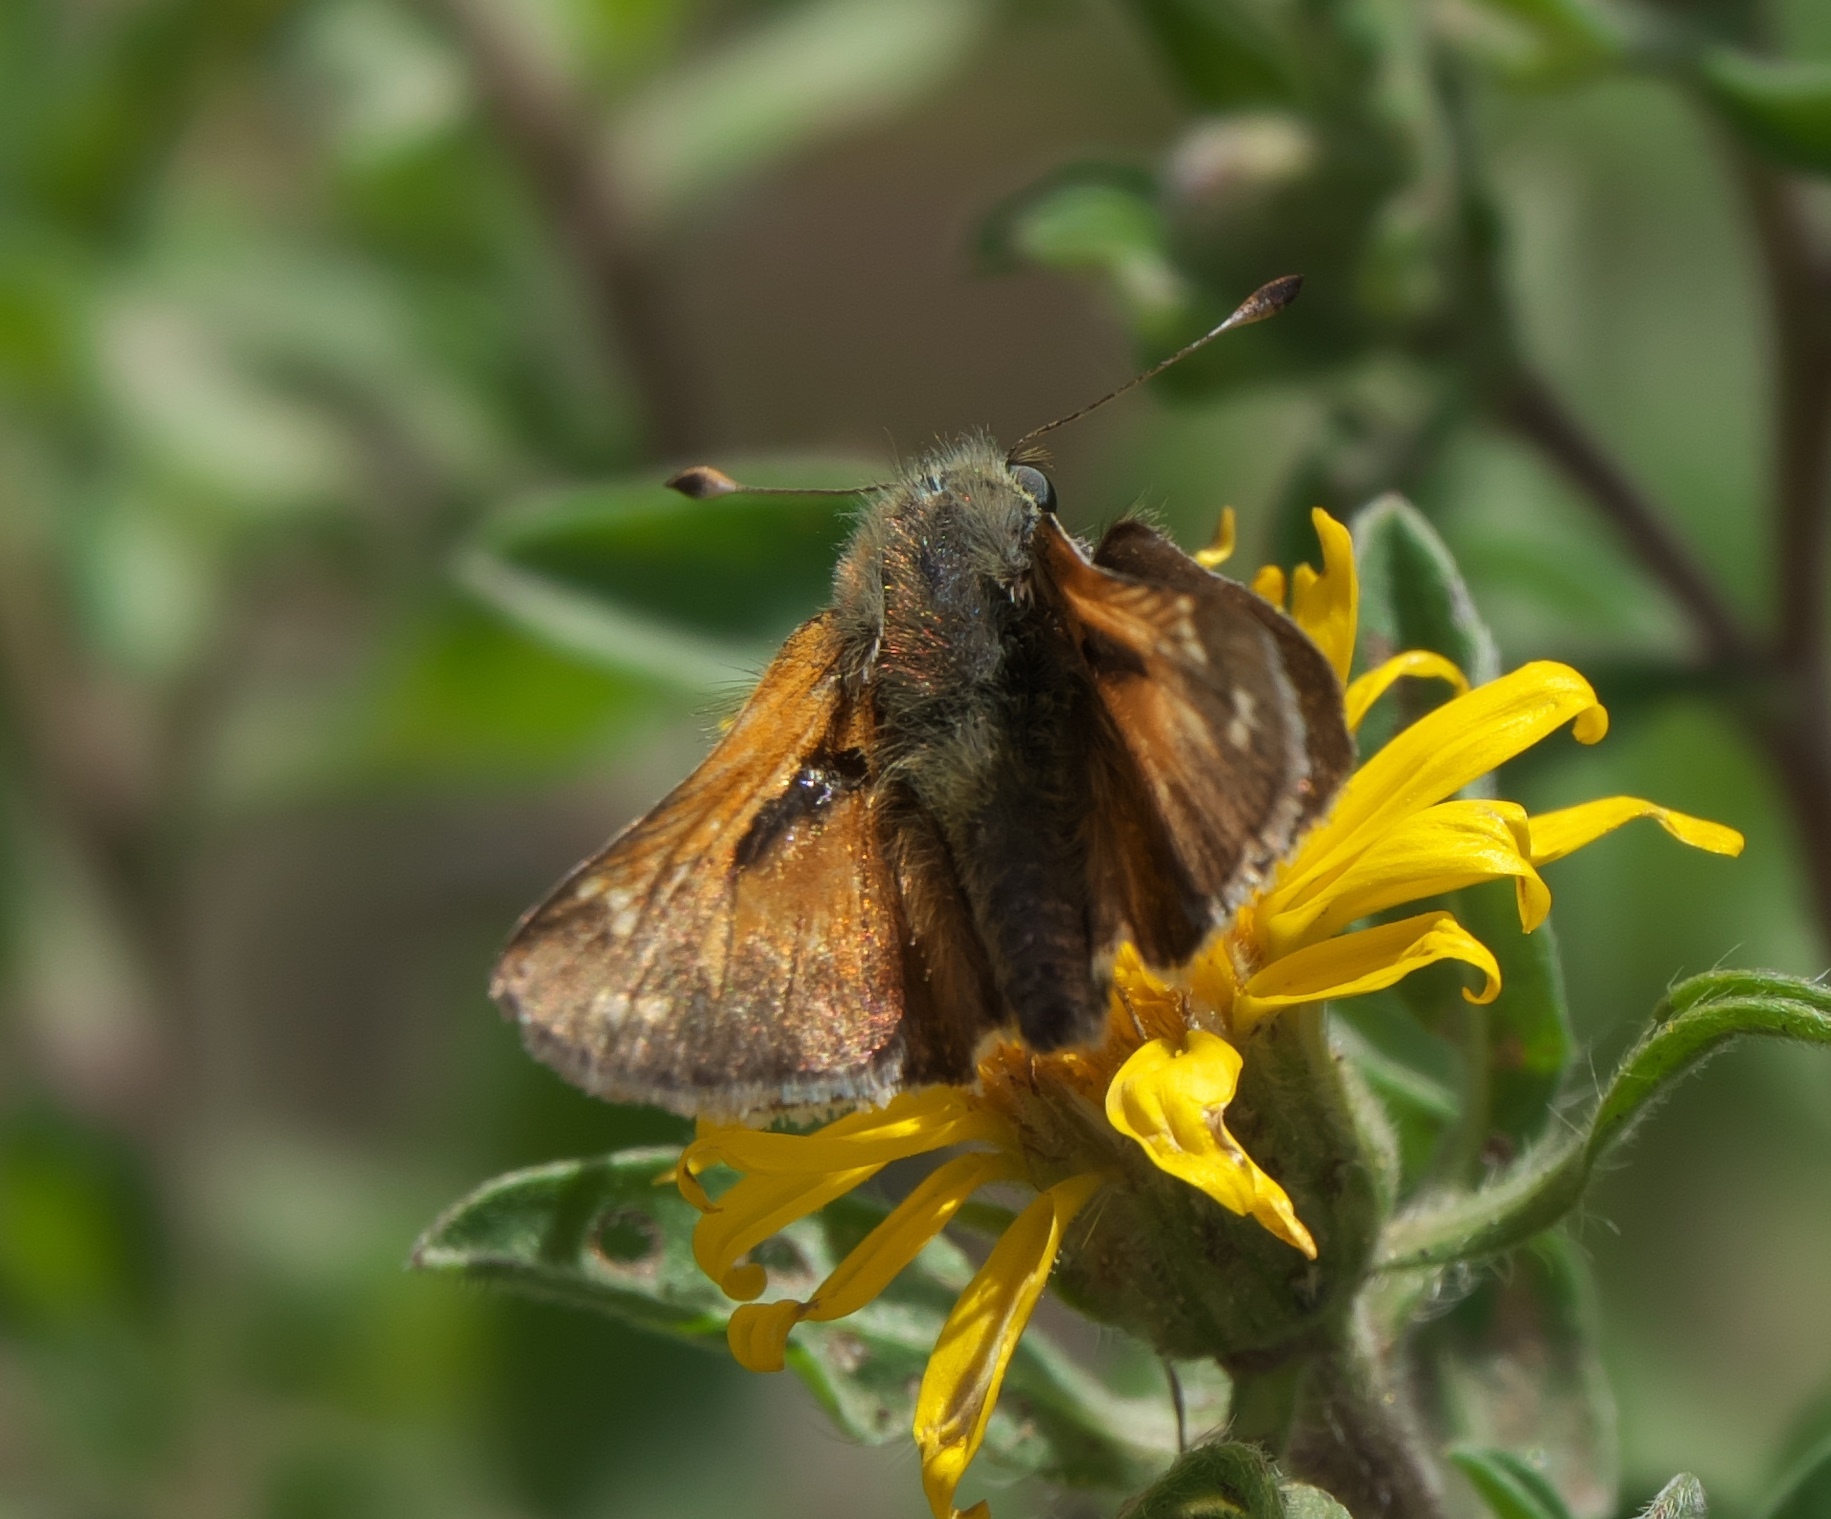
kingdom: Animalia
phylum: Arthropoda
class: Insecta
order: Lepidoptera
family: Hesperiidae
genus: Polites
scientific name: Polites sabuleti
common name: Sandhill skipper
